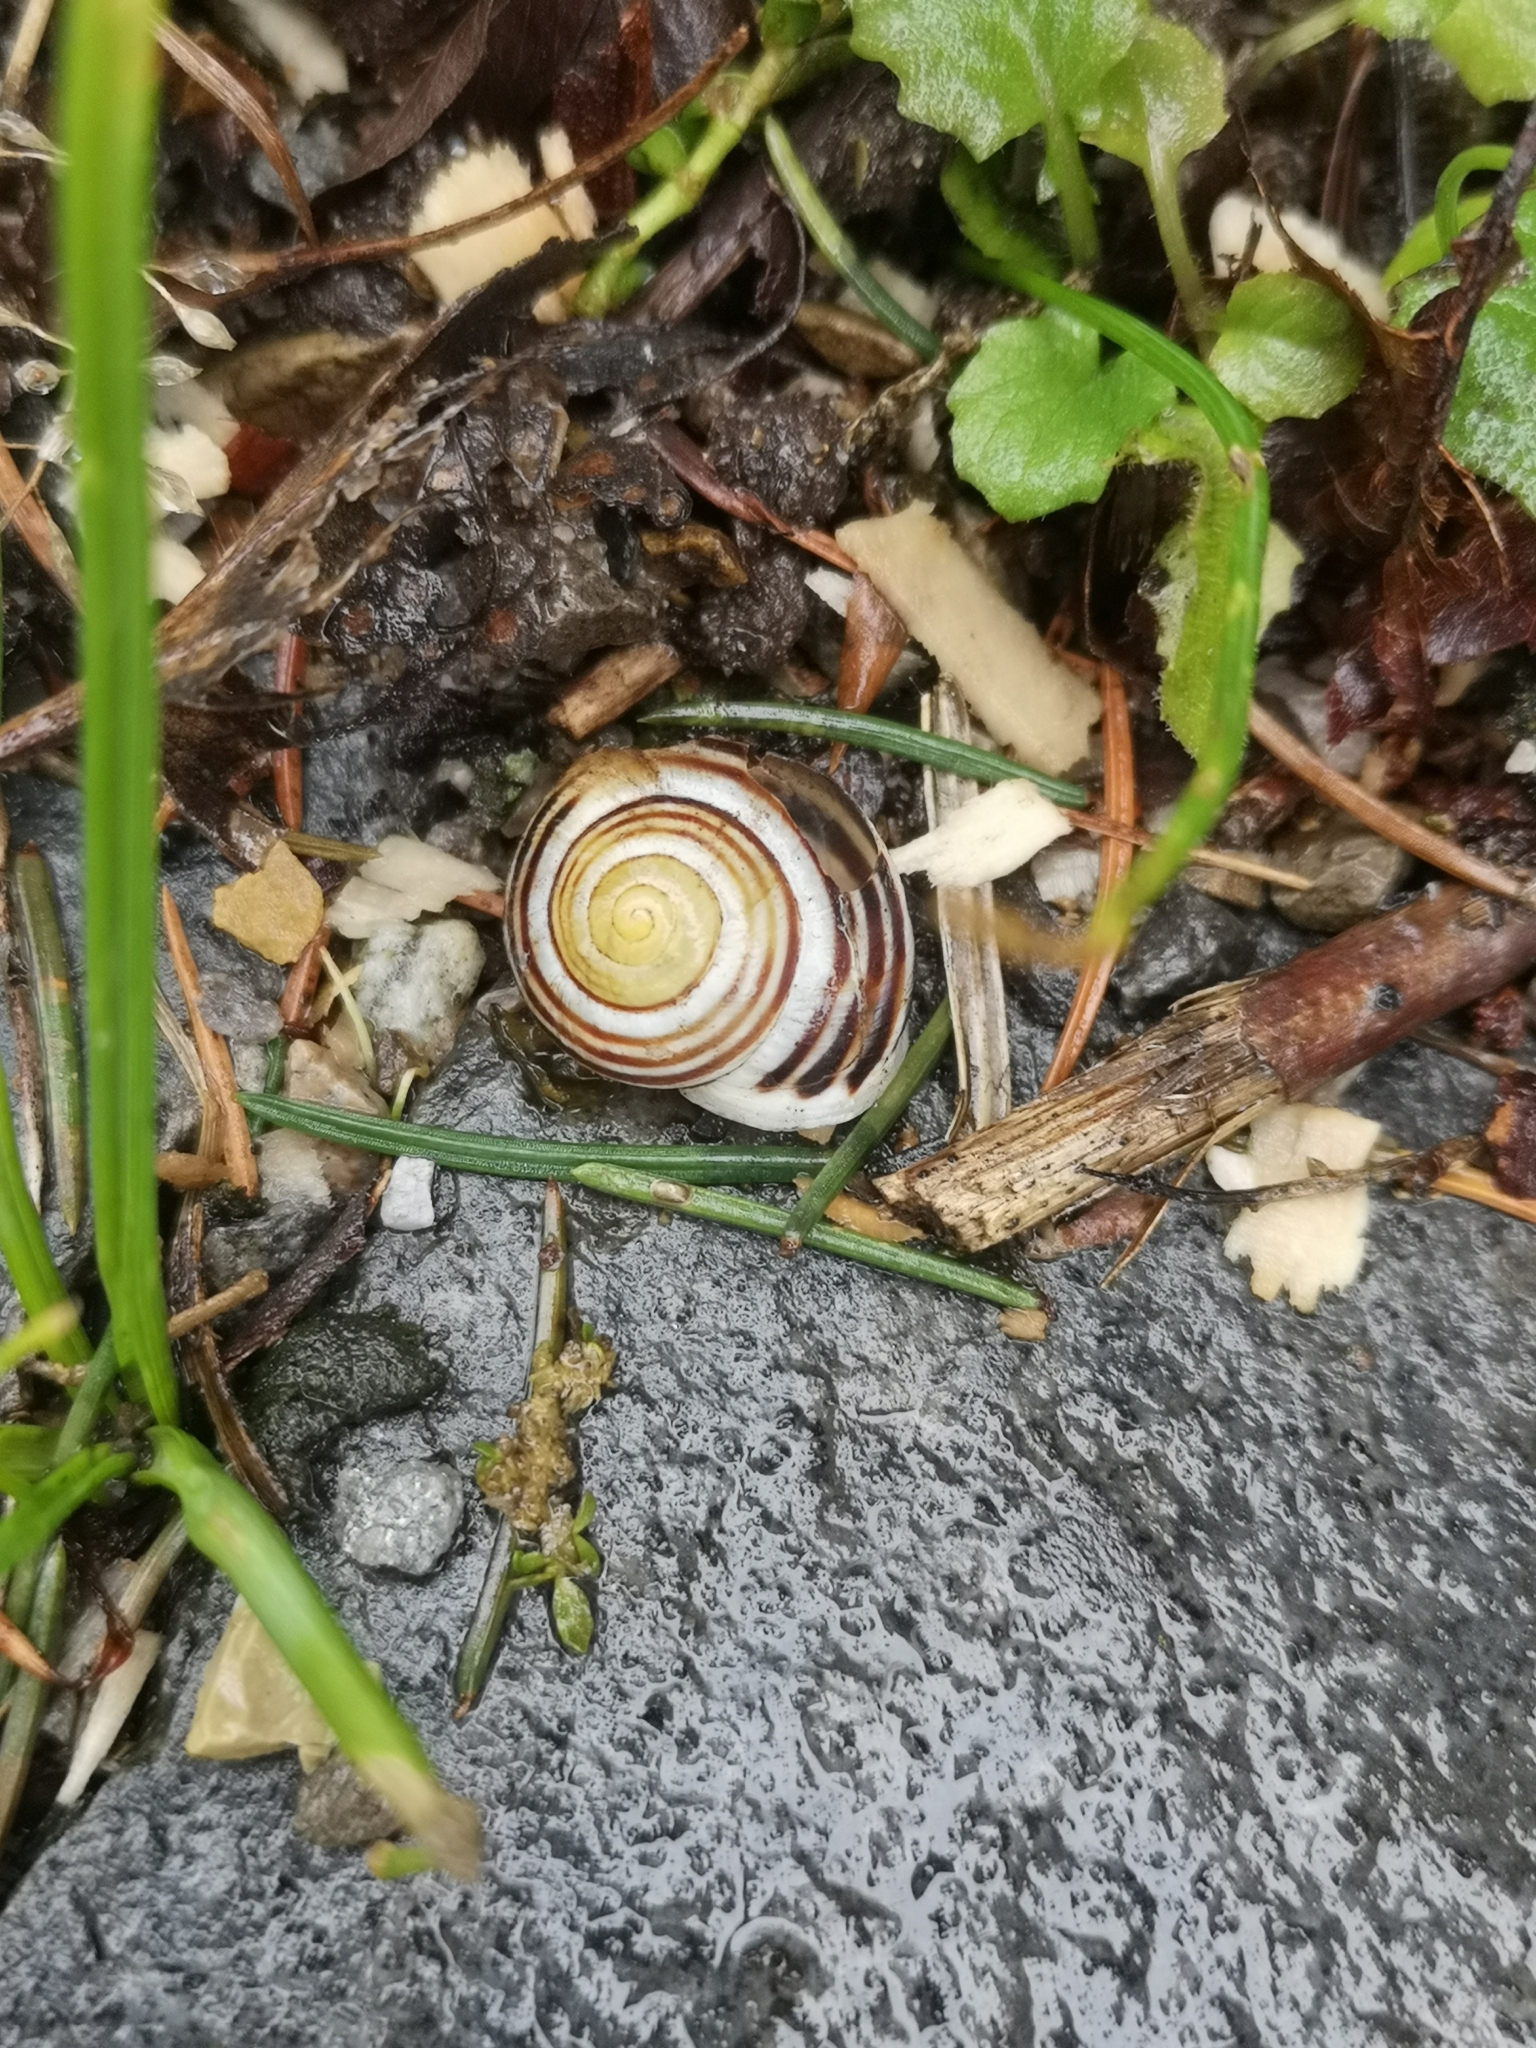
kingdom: Animalia
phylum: Mollusca
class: Gastropoda
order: Stylommatophora
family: Helicidae
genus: Cepaea
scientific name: Cepaea hortensis
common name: White-lip gardensnail
